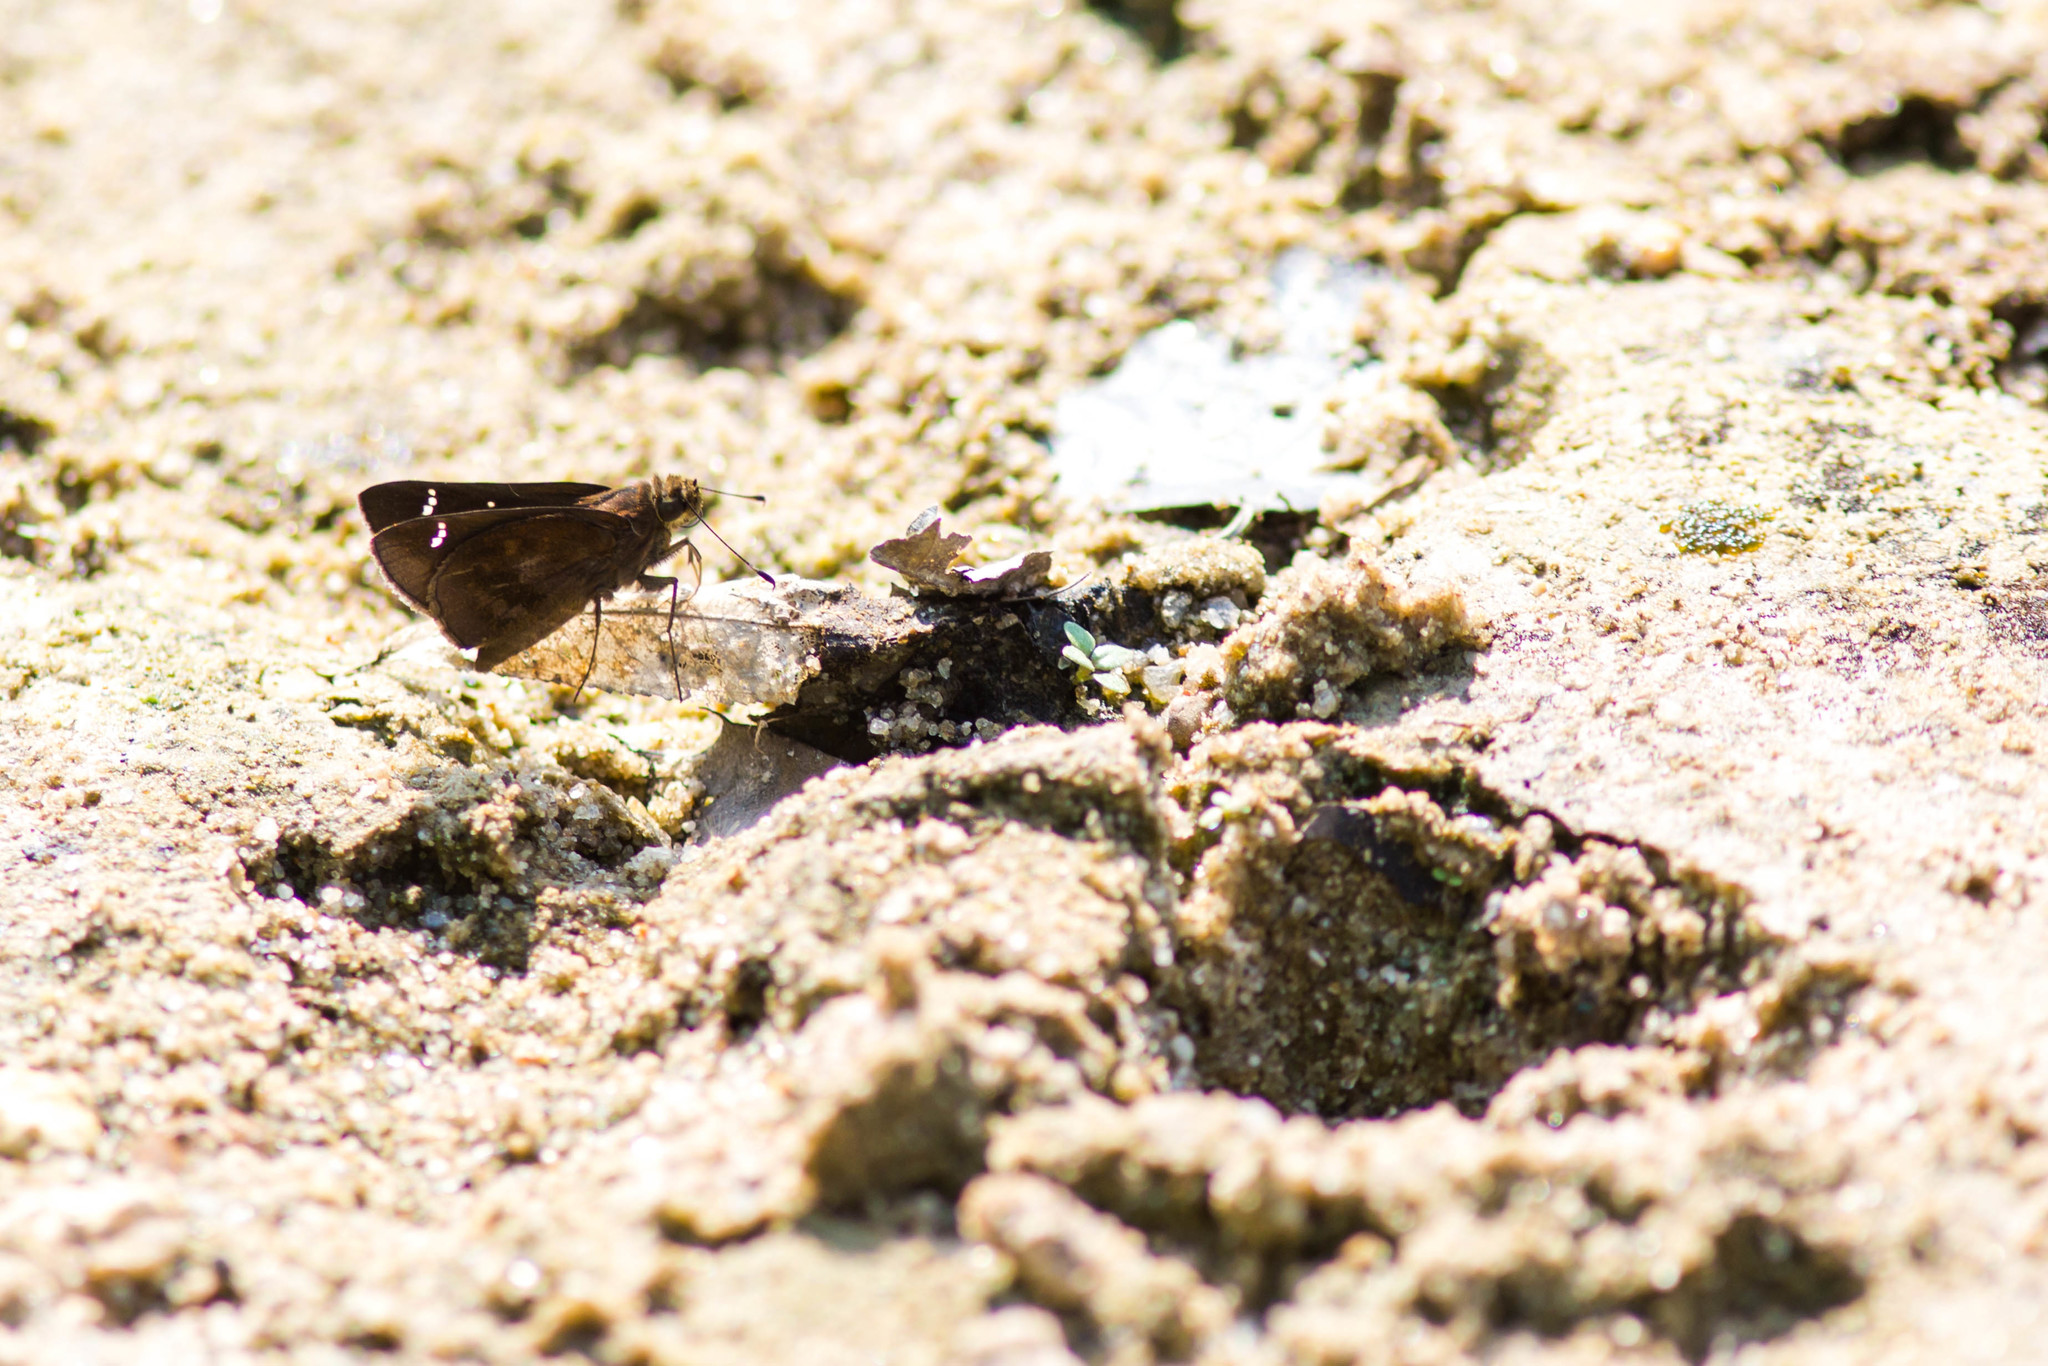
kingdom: Animalia
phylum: Arthropoda
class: Insecta
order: Lepidoptera
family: Hesperiidae
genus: Lerema
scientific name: Lerema accius
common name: Clouded skipper
